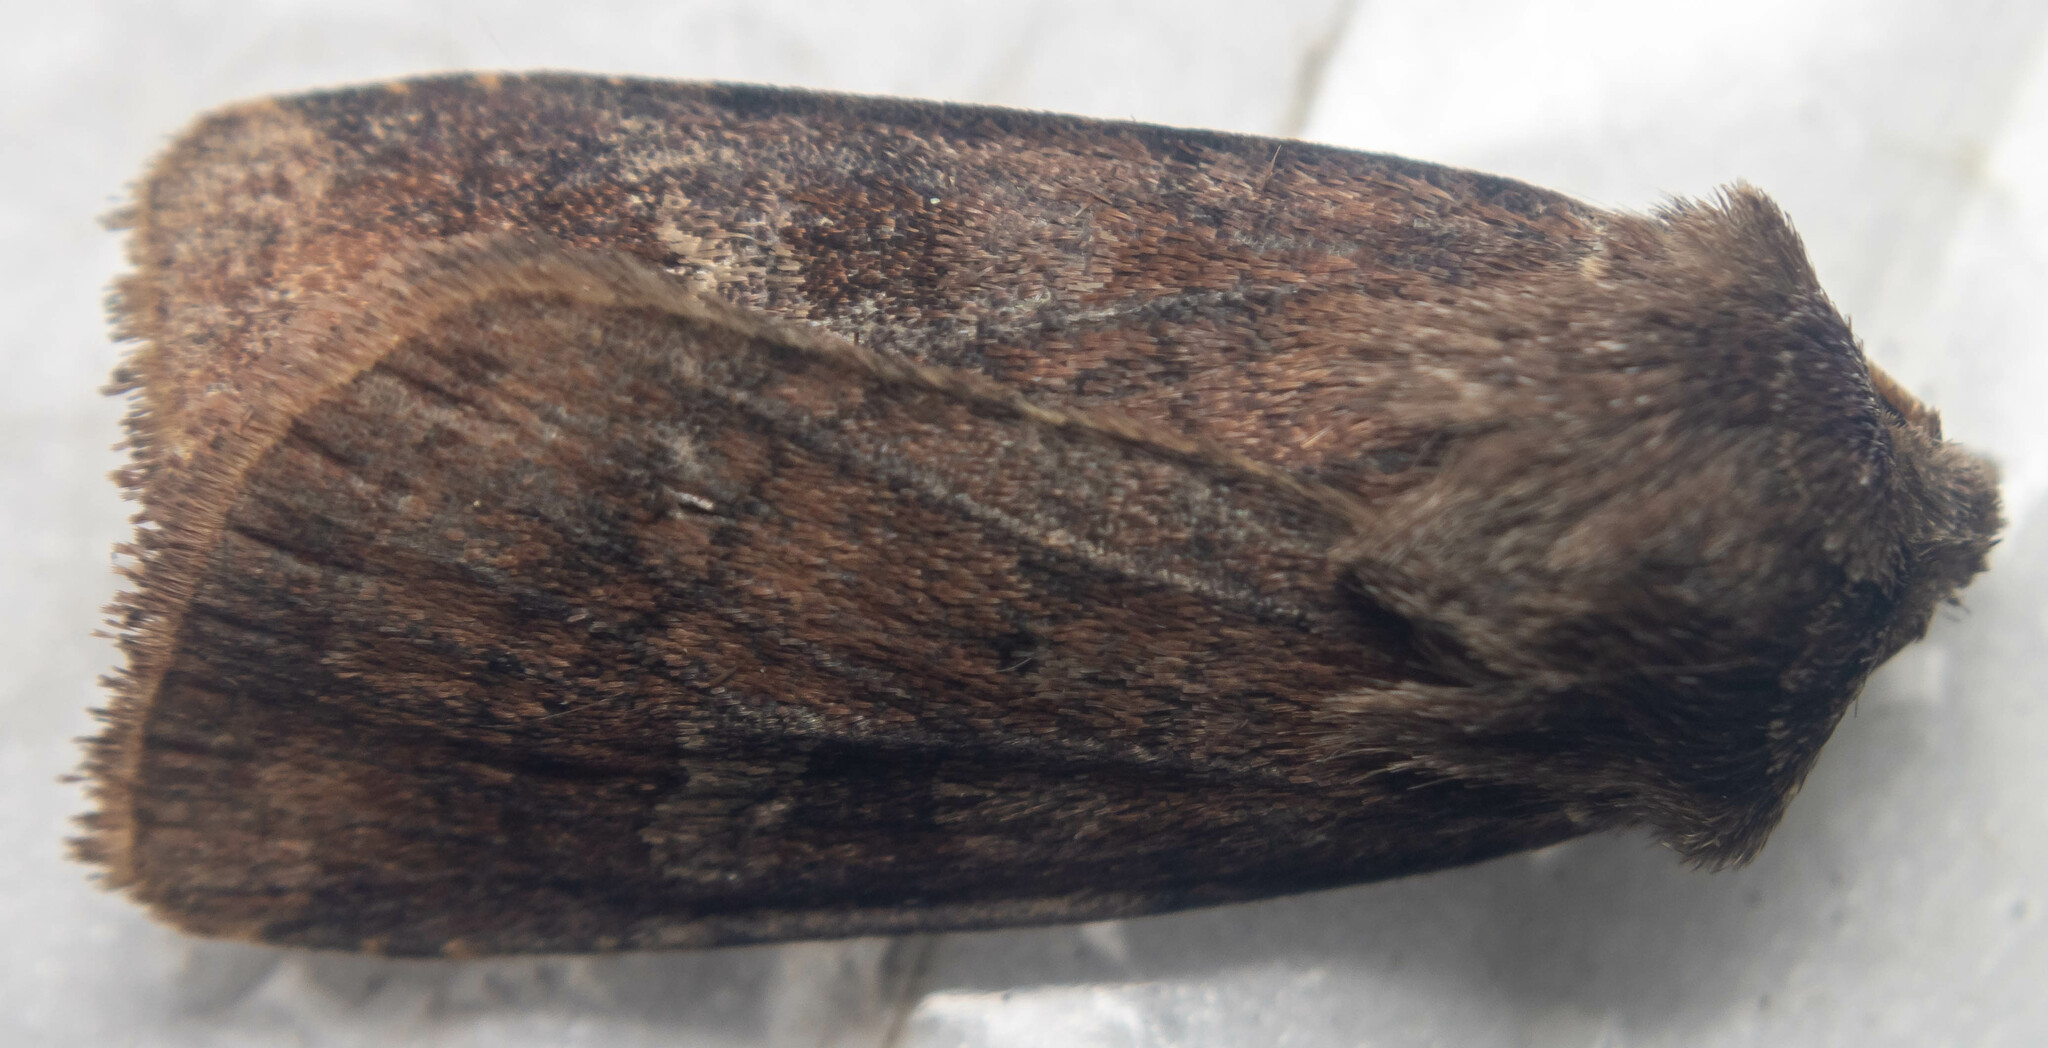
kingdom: Animalia
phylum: Arthropoda
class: Insecta
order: Lepidoptera
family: Noctuidae
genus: Diarsia
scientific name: Diarsia rubi
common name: Small square-spot
